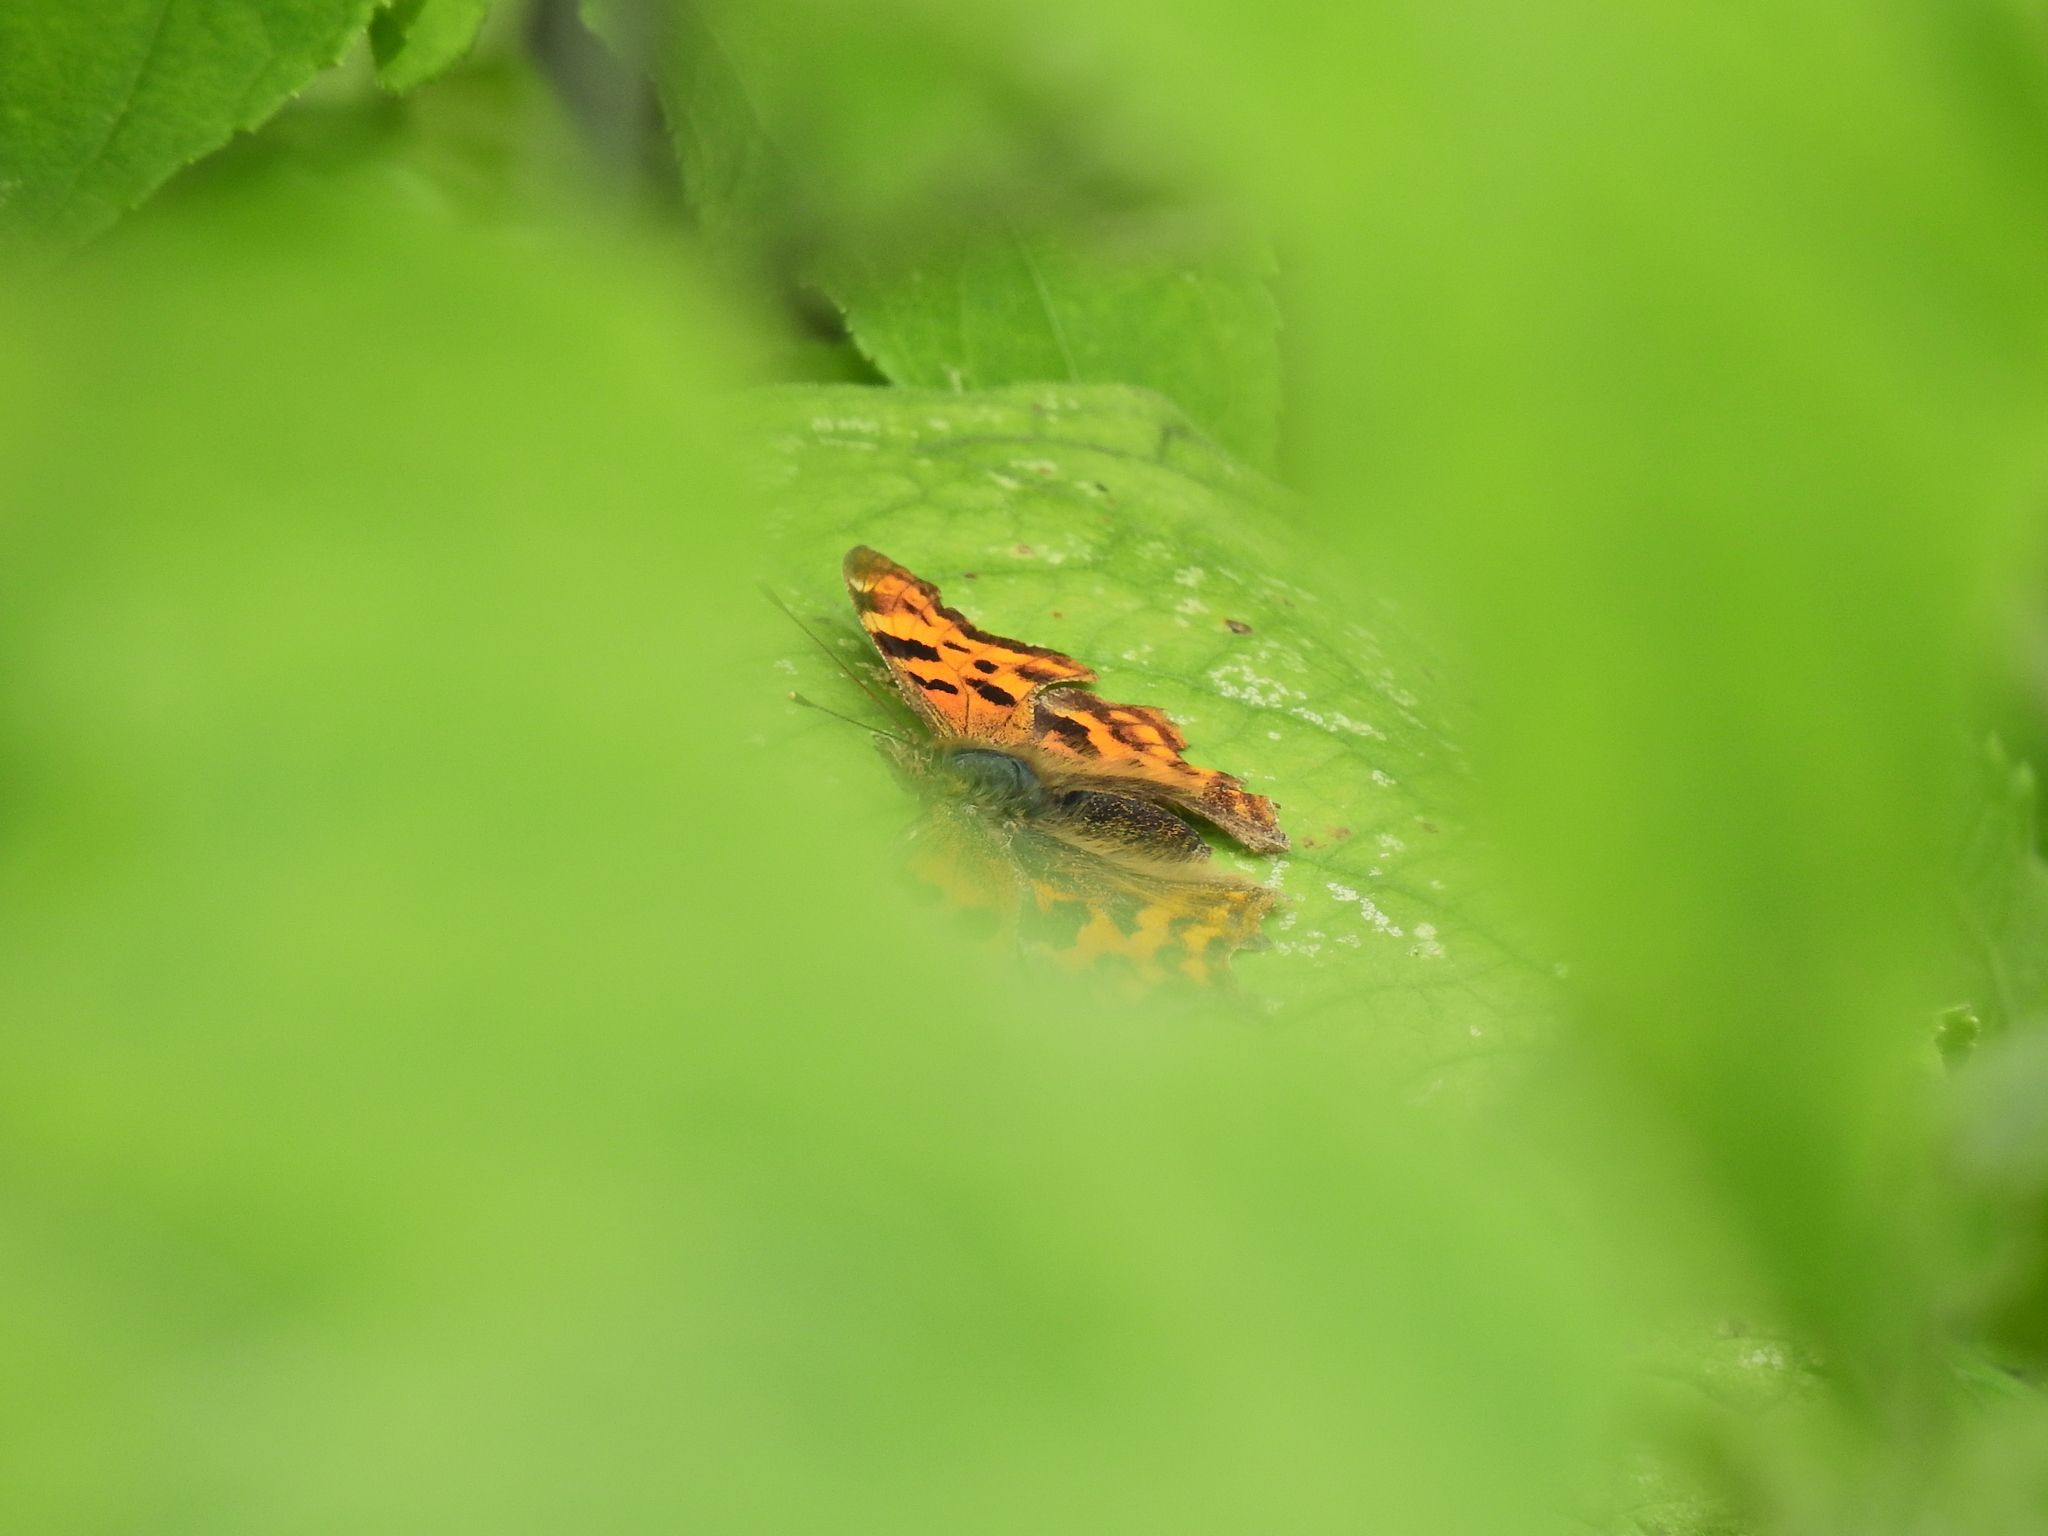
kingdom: Animalia
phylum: Arthropoda
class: Insecta
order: Lepidoptera
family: Nymphalidae
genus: Polygonia
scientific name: Polygonia c-album
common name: Comma
